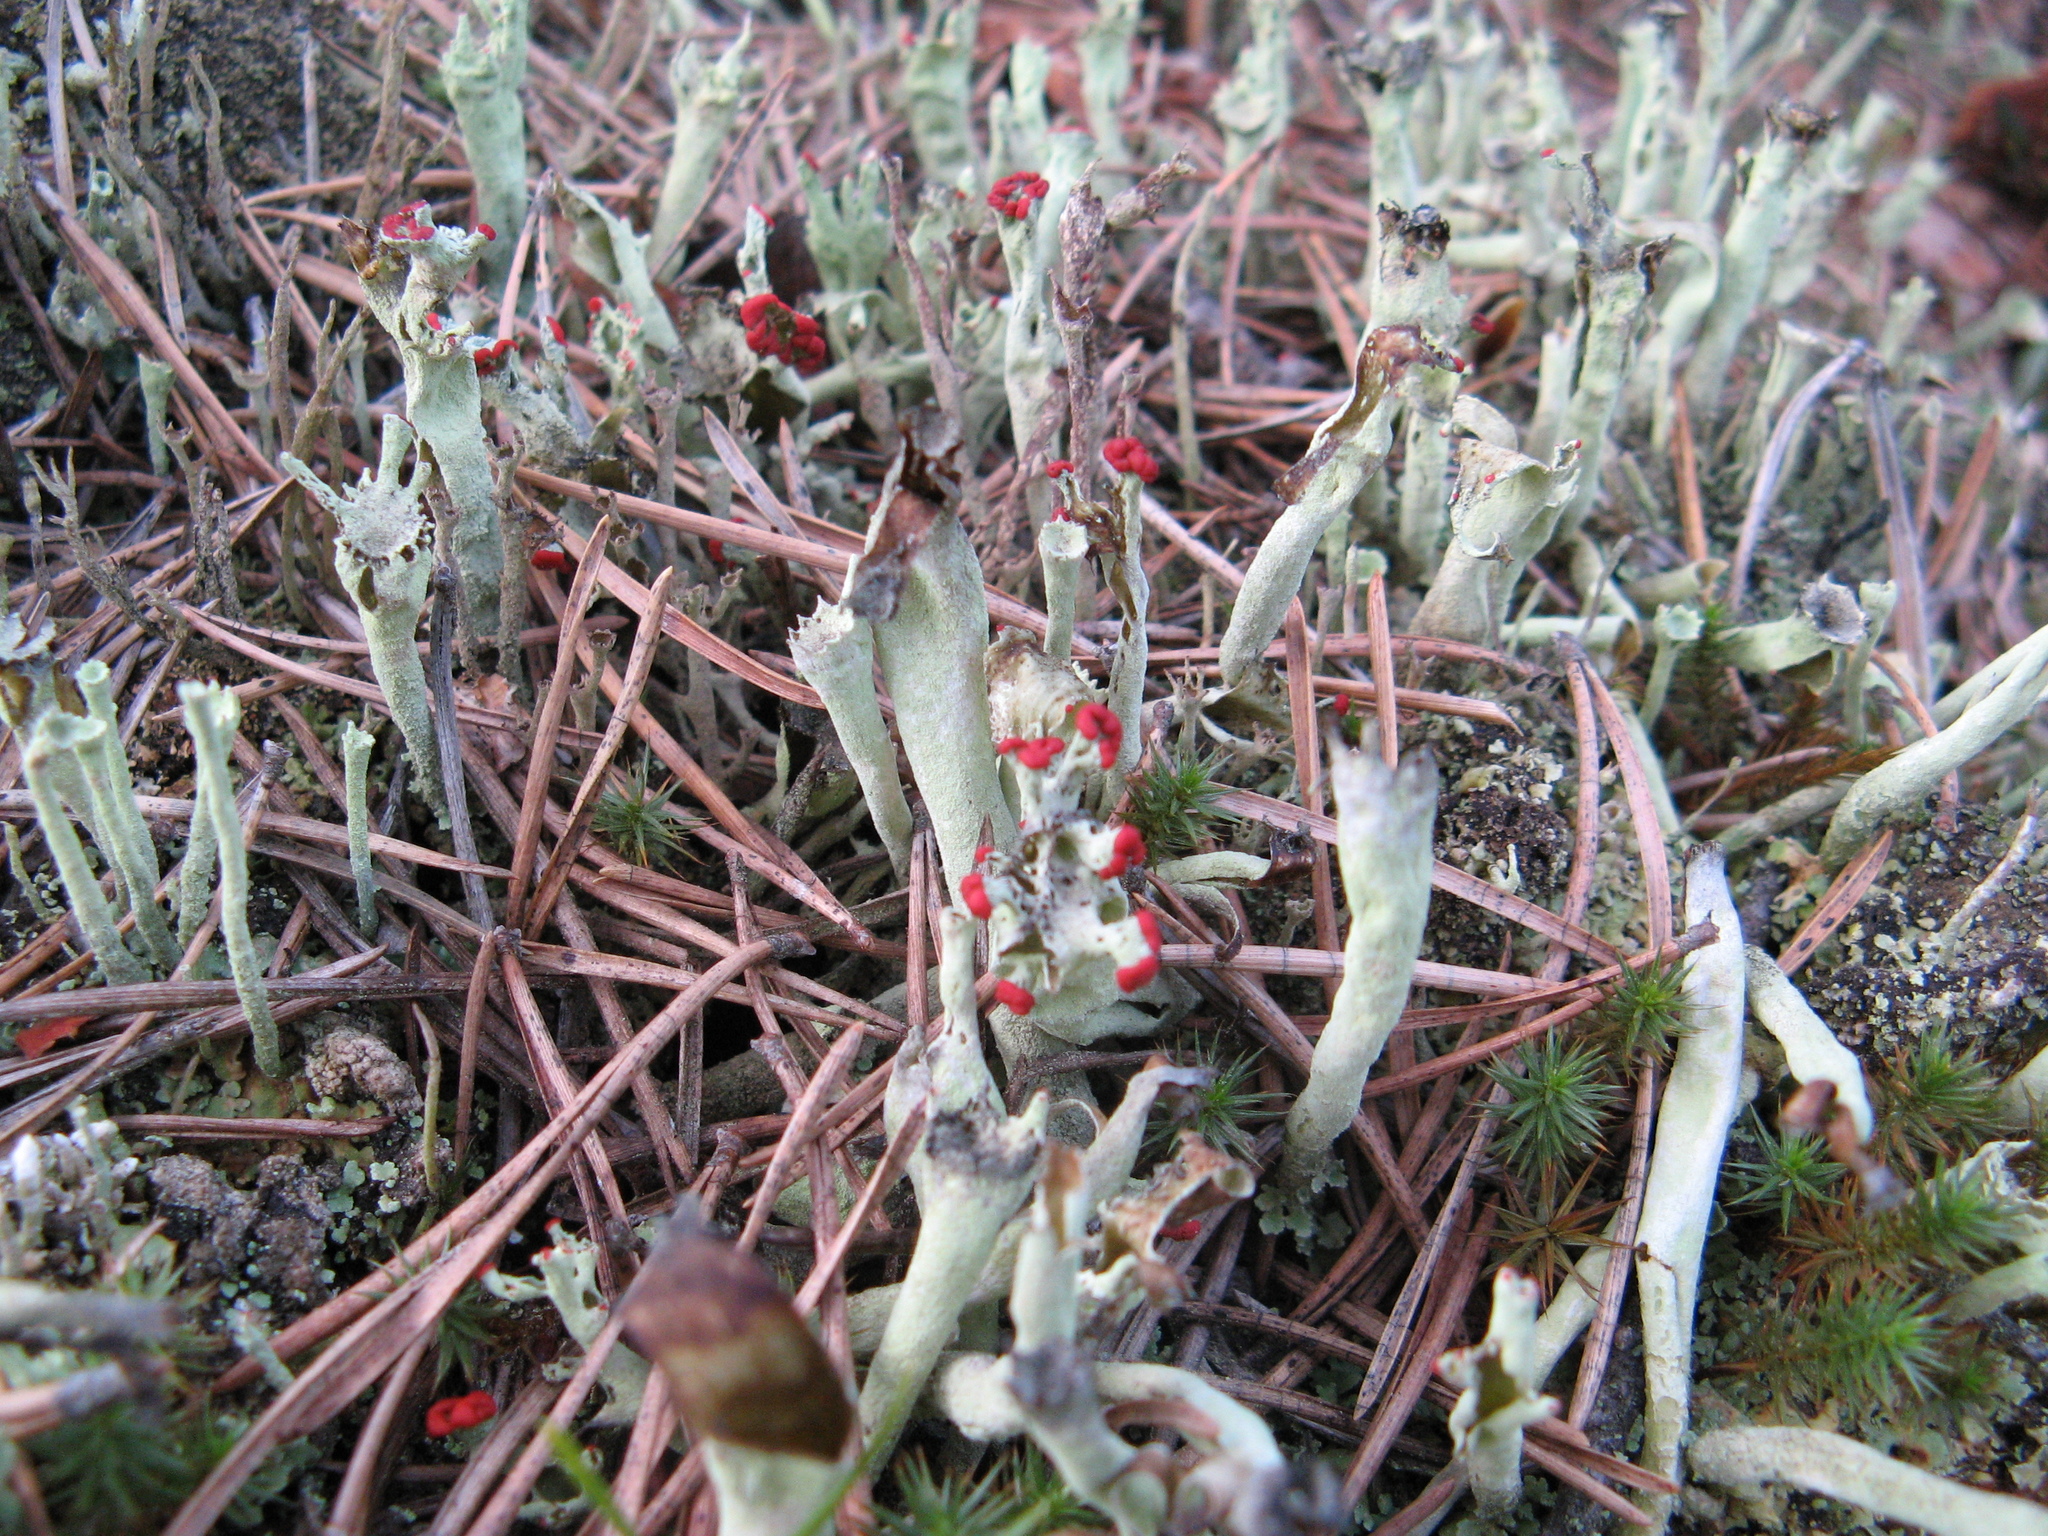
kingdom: Fungi
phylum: Ascomycota
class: Lecanoromycetes
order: Lecanorales
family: Cladoniaceae
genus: Cladonia
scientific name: Cladonia
